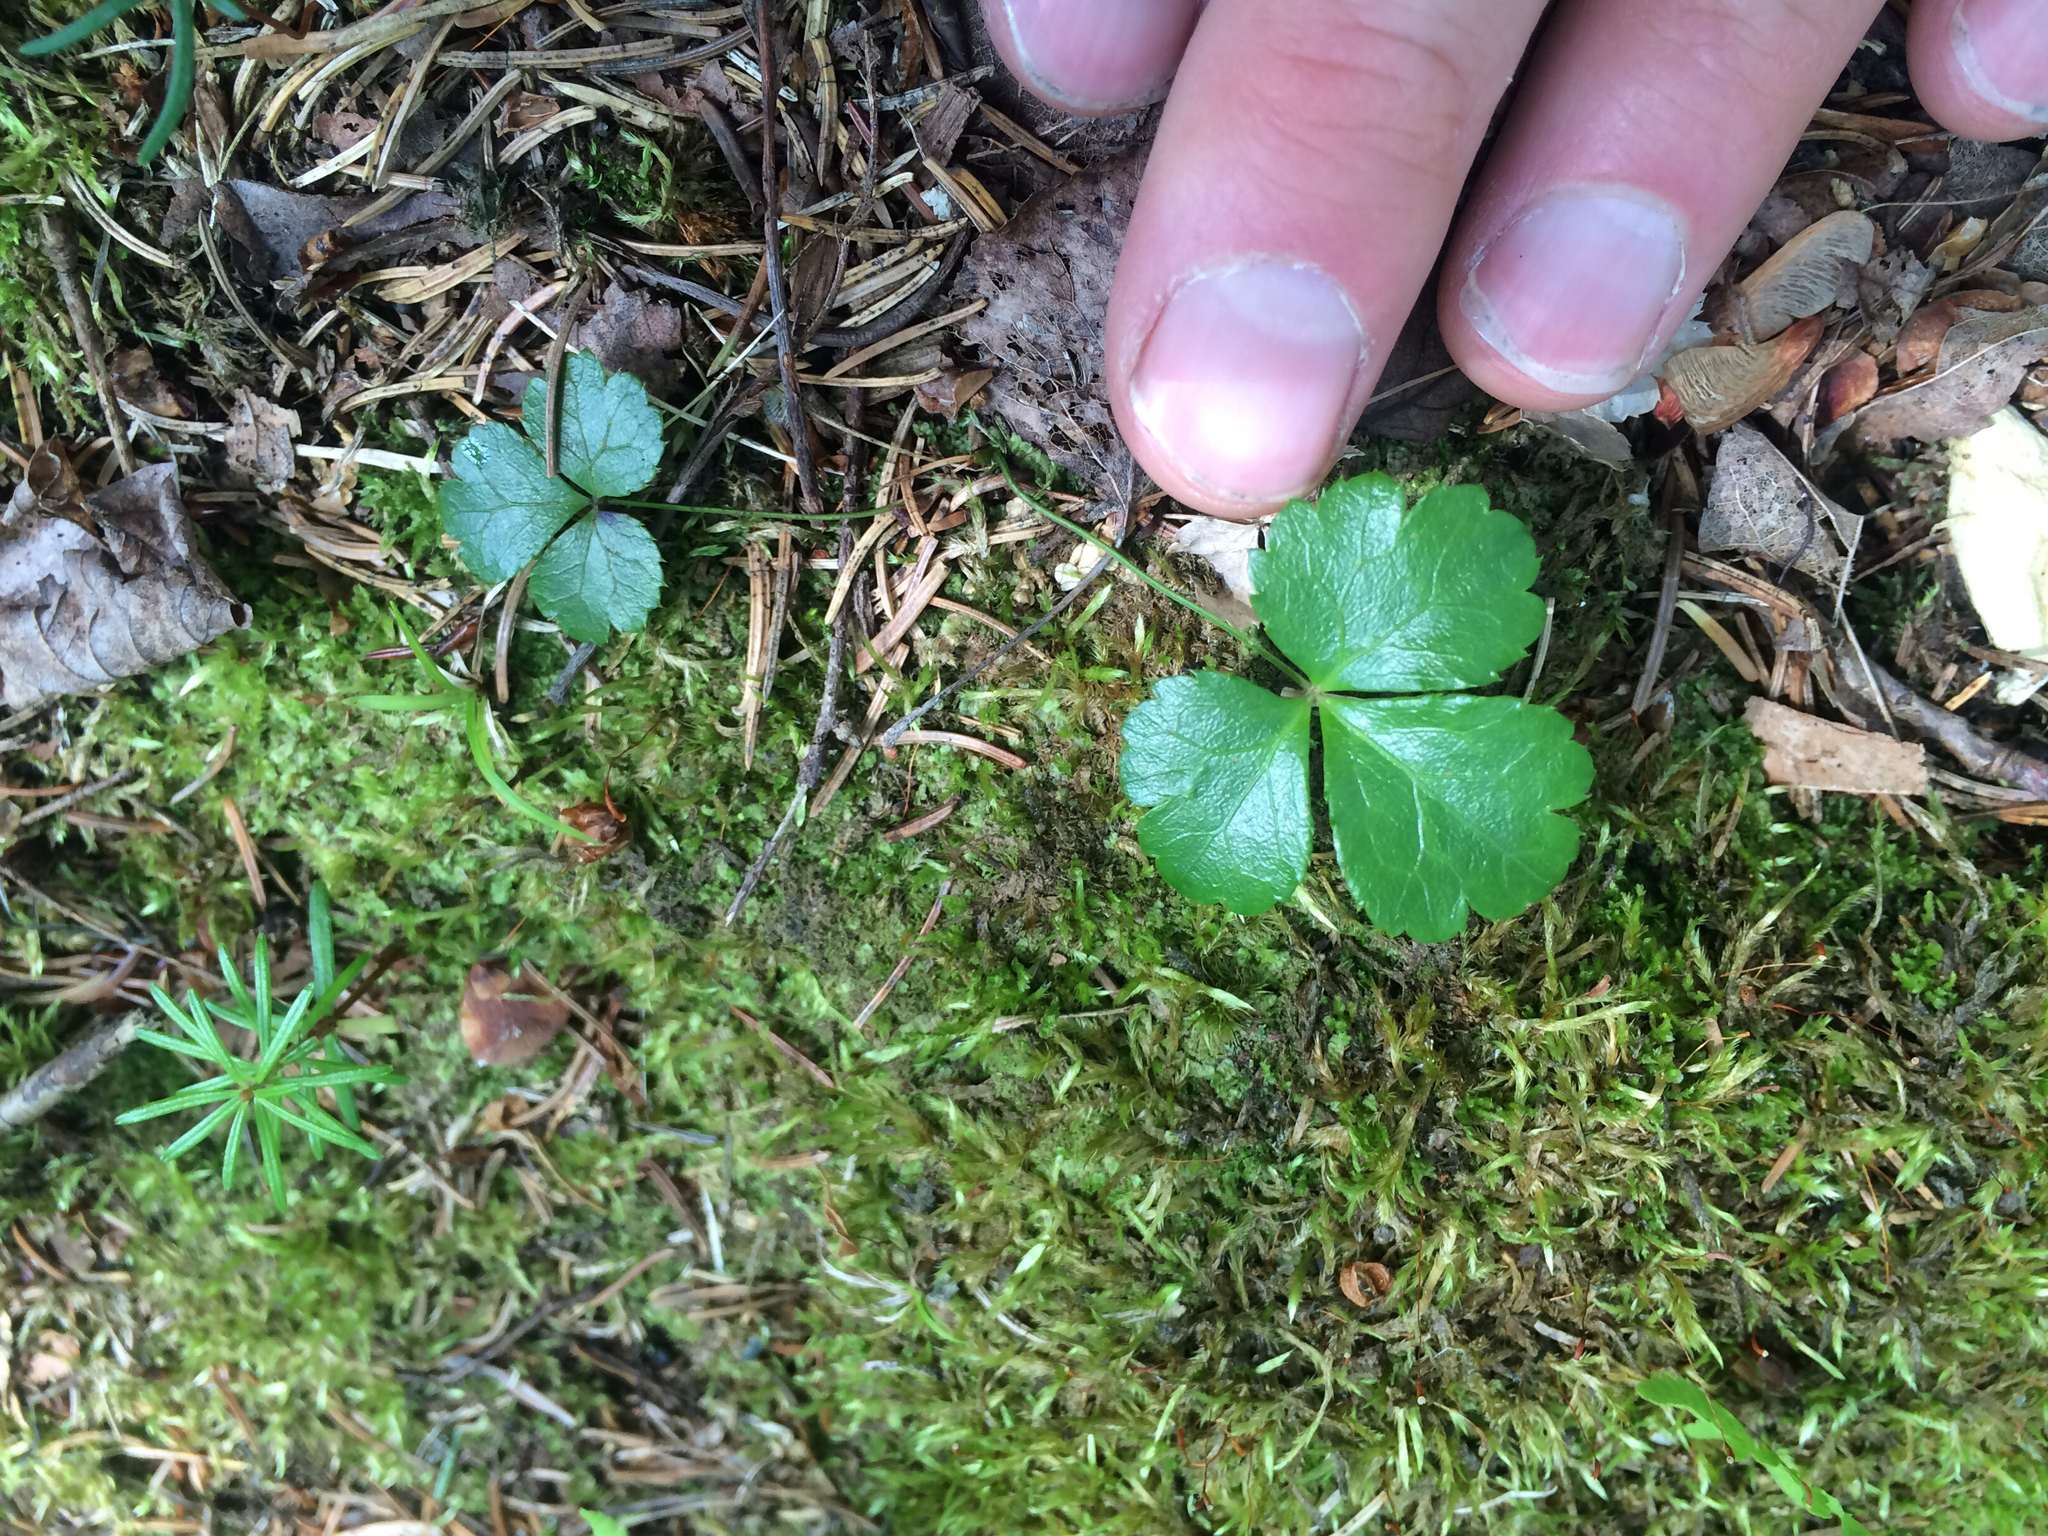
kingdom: Plantae
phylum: Tracheophyta
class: Magnoliopsida
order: Ranunculales
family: Ranunculaceae
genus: Coptis
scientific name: Coptis trifolia
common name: Canker-root
